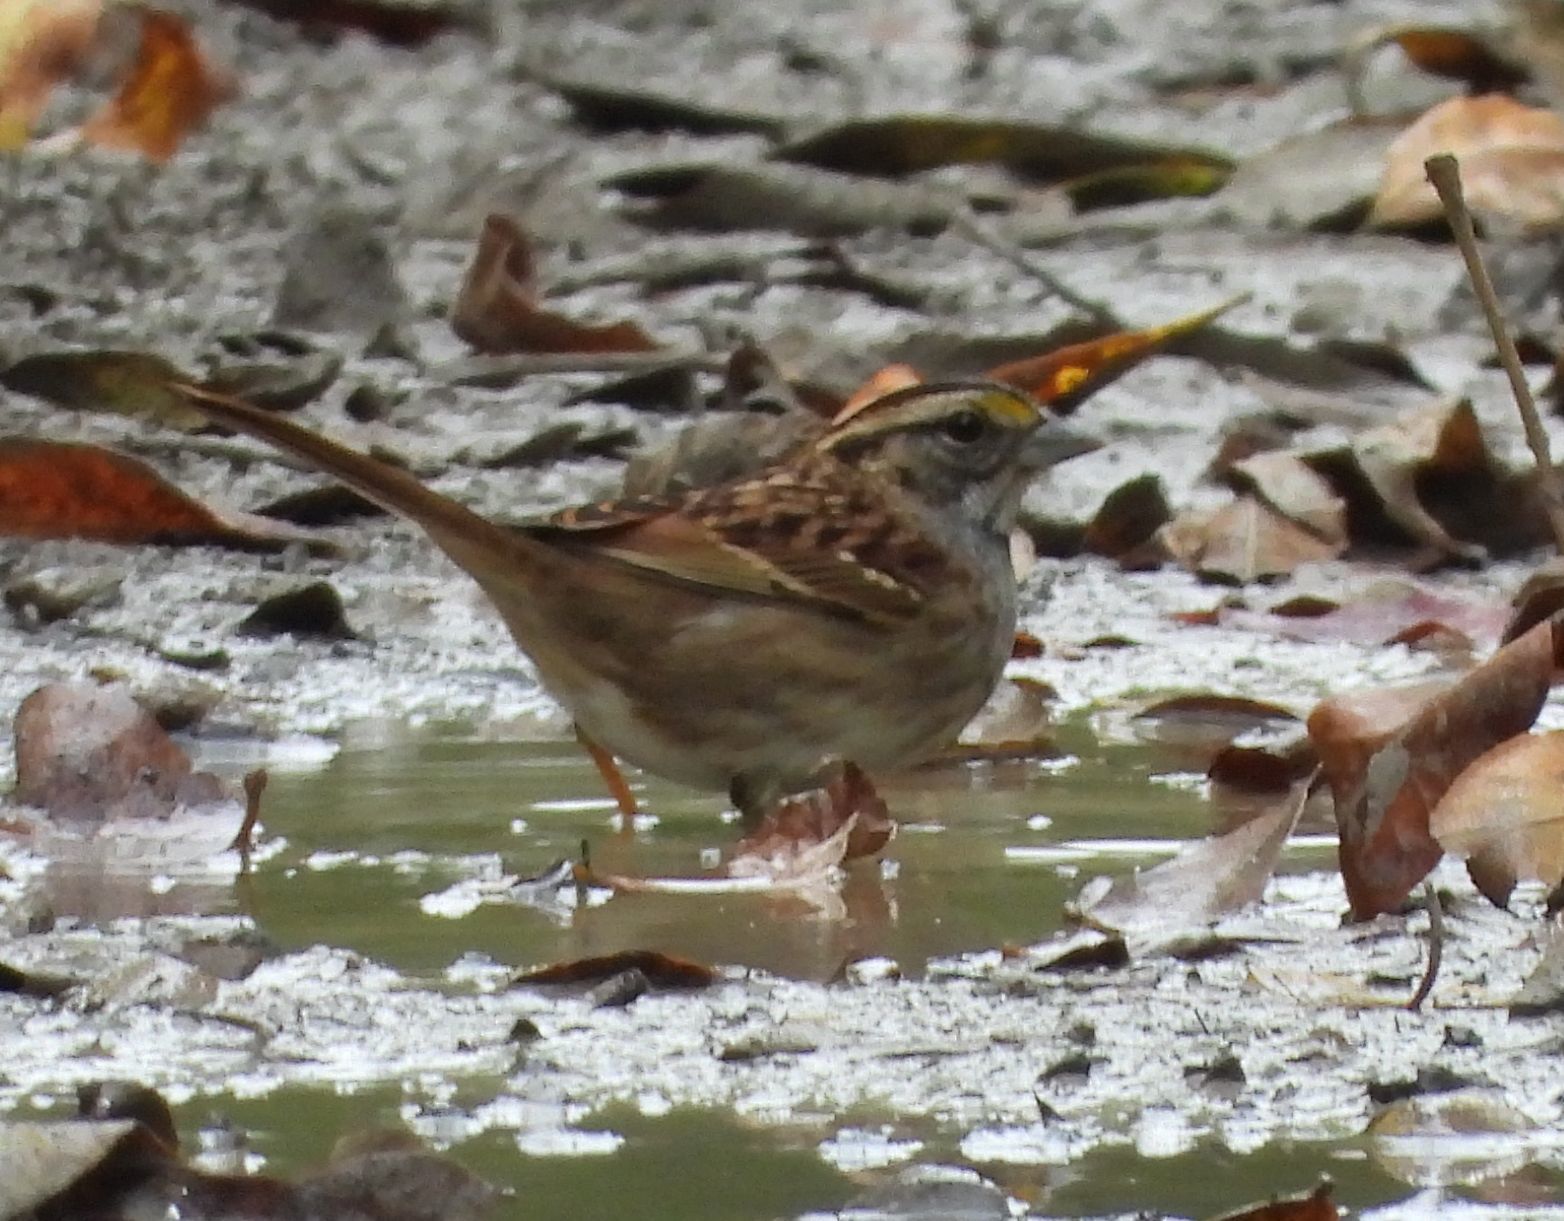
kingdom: Animalia
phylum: Chordata
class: Aves
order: Passeriformes
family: Passerellidae
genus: Zonotrichia
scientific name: Zonotrichia albicollis
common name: White-throated sparrow
